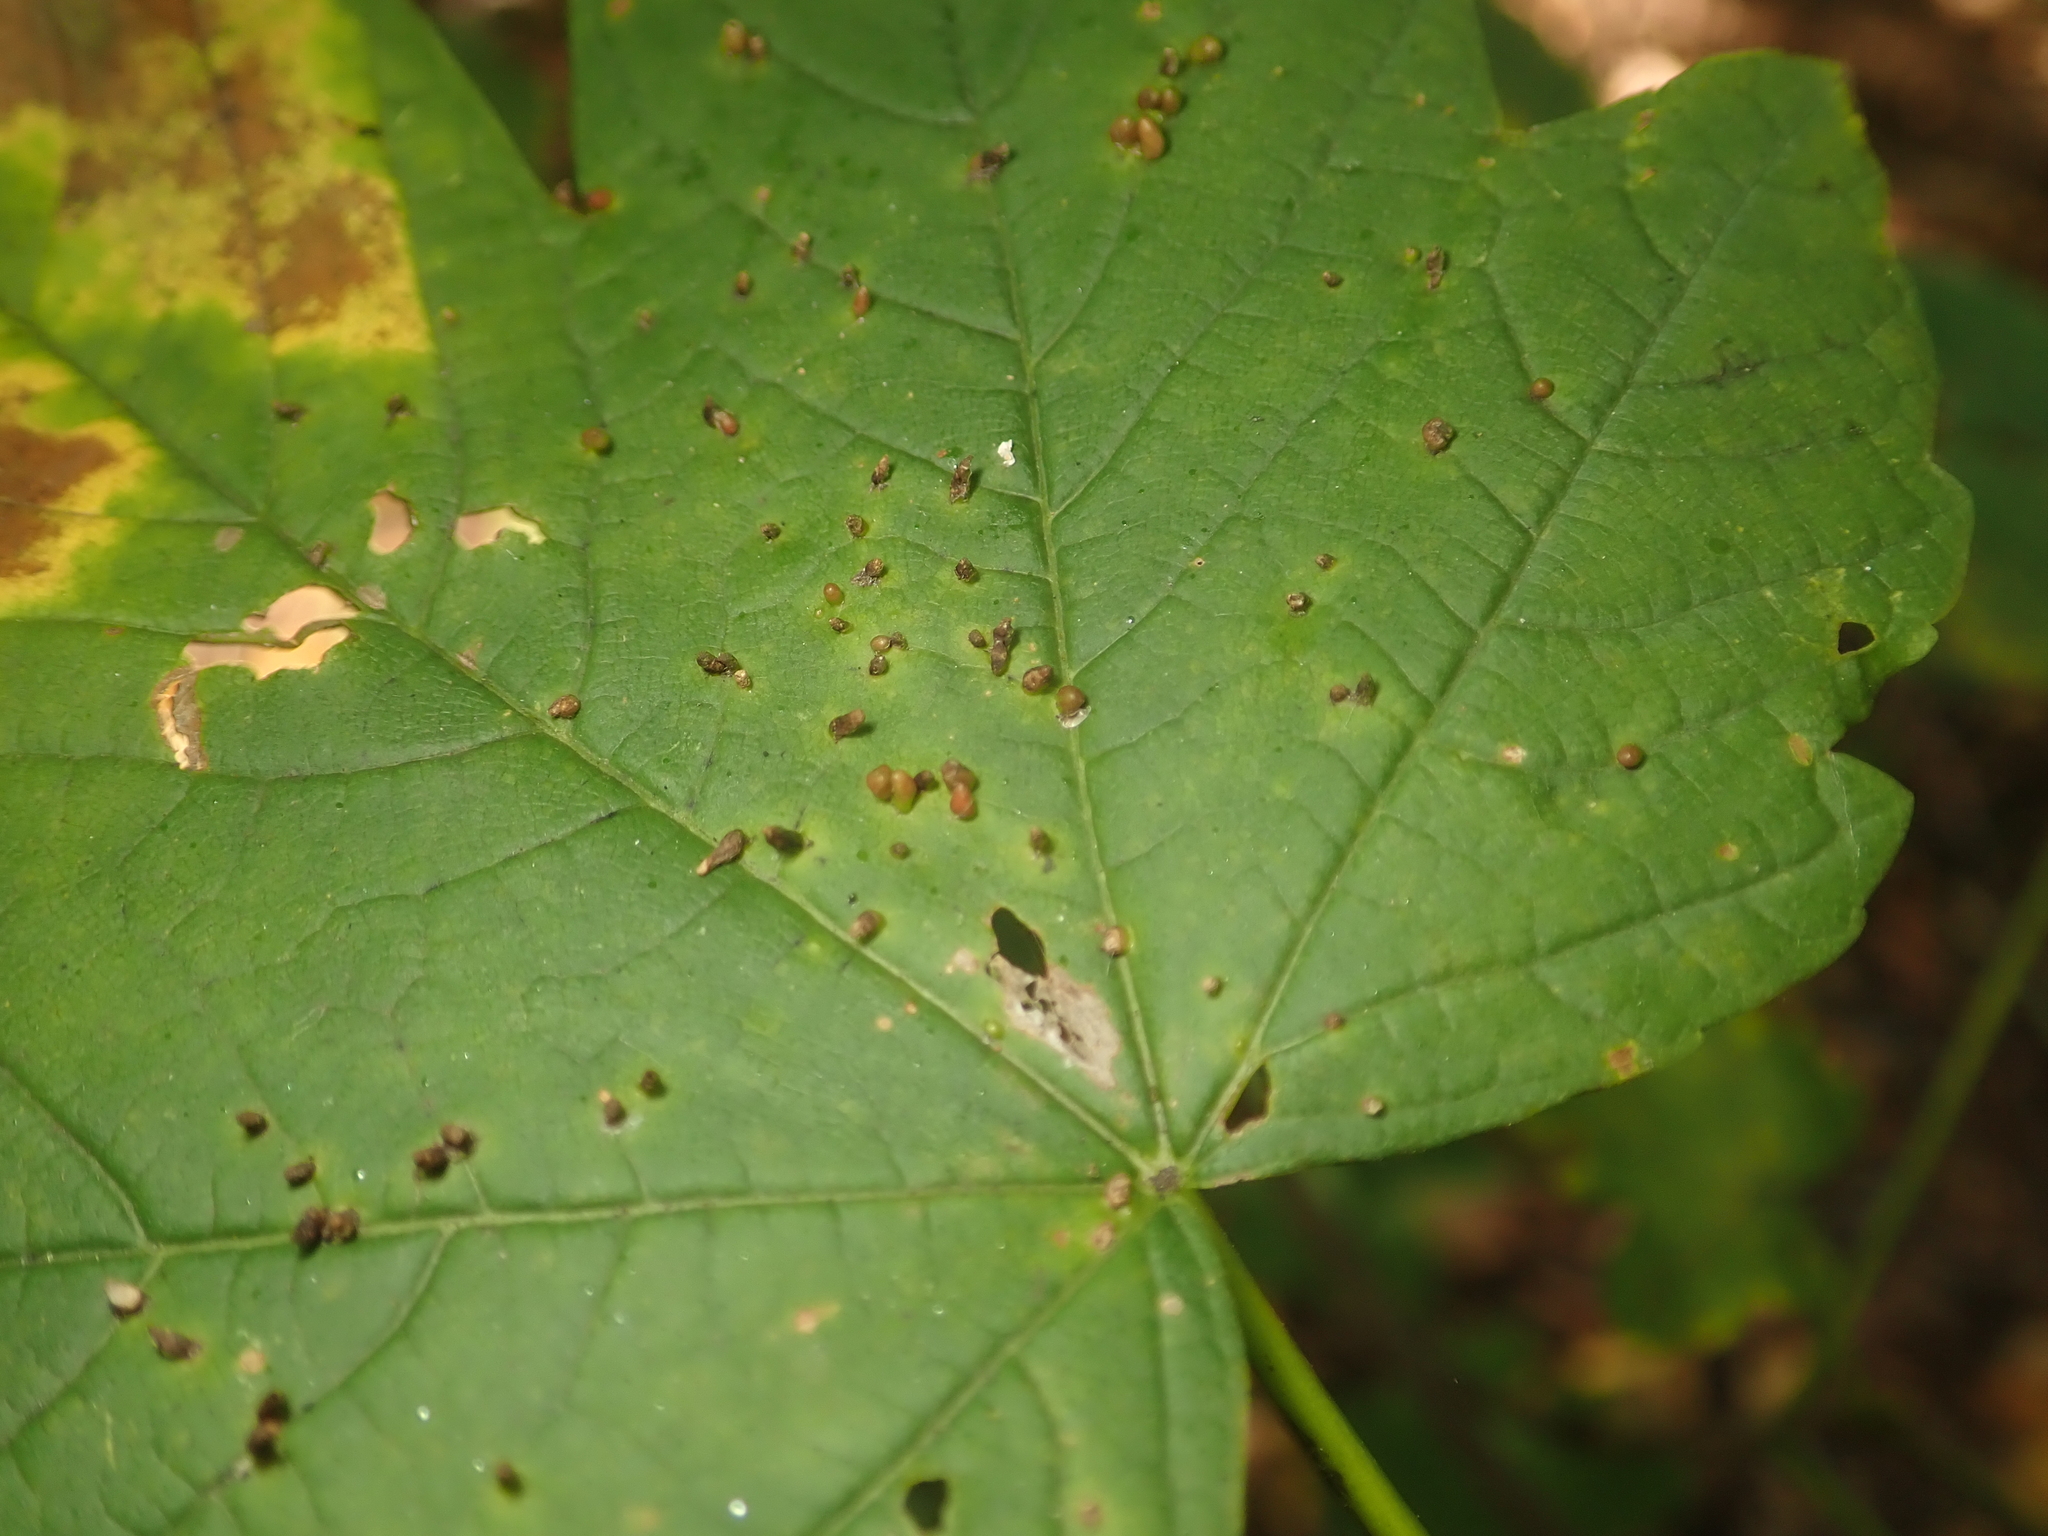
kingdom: Animalia
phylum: Arthropoda
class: Arachnida
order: Trombidiformes
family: Eriophyidae
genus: Aceria
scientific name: Aceria cephaloneus
